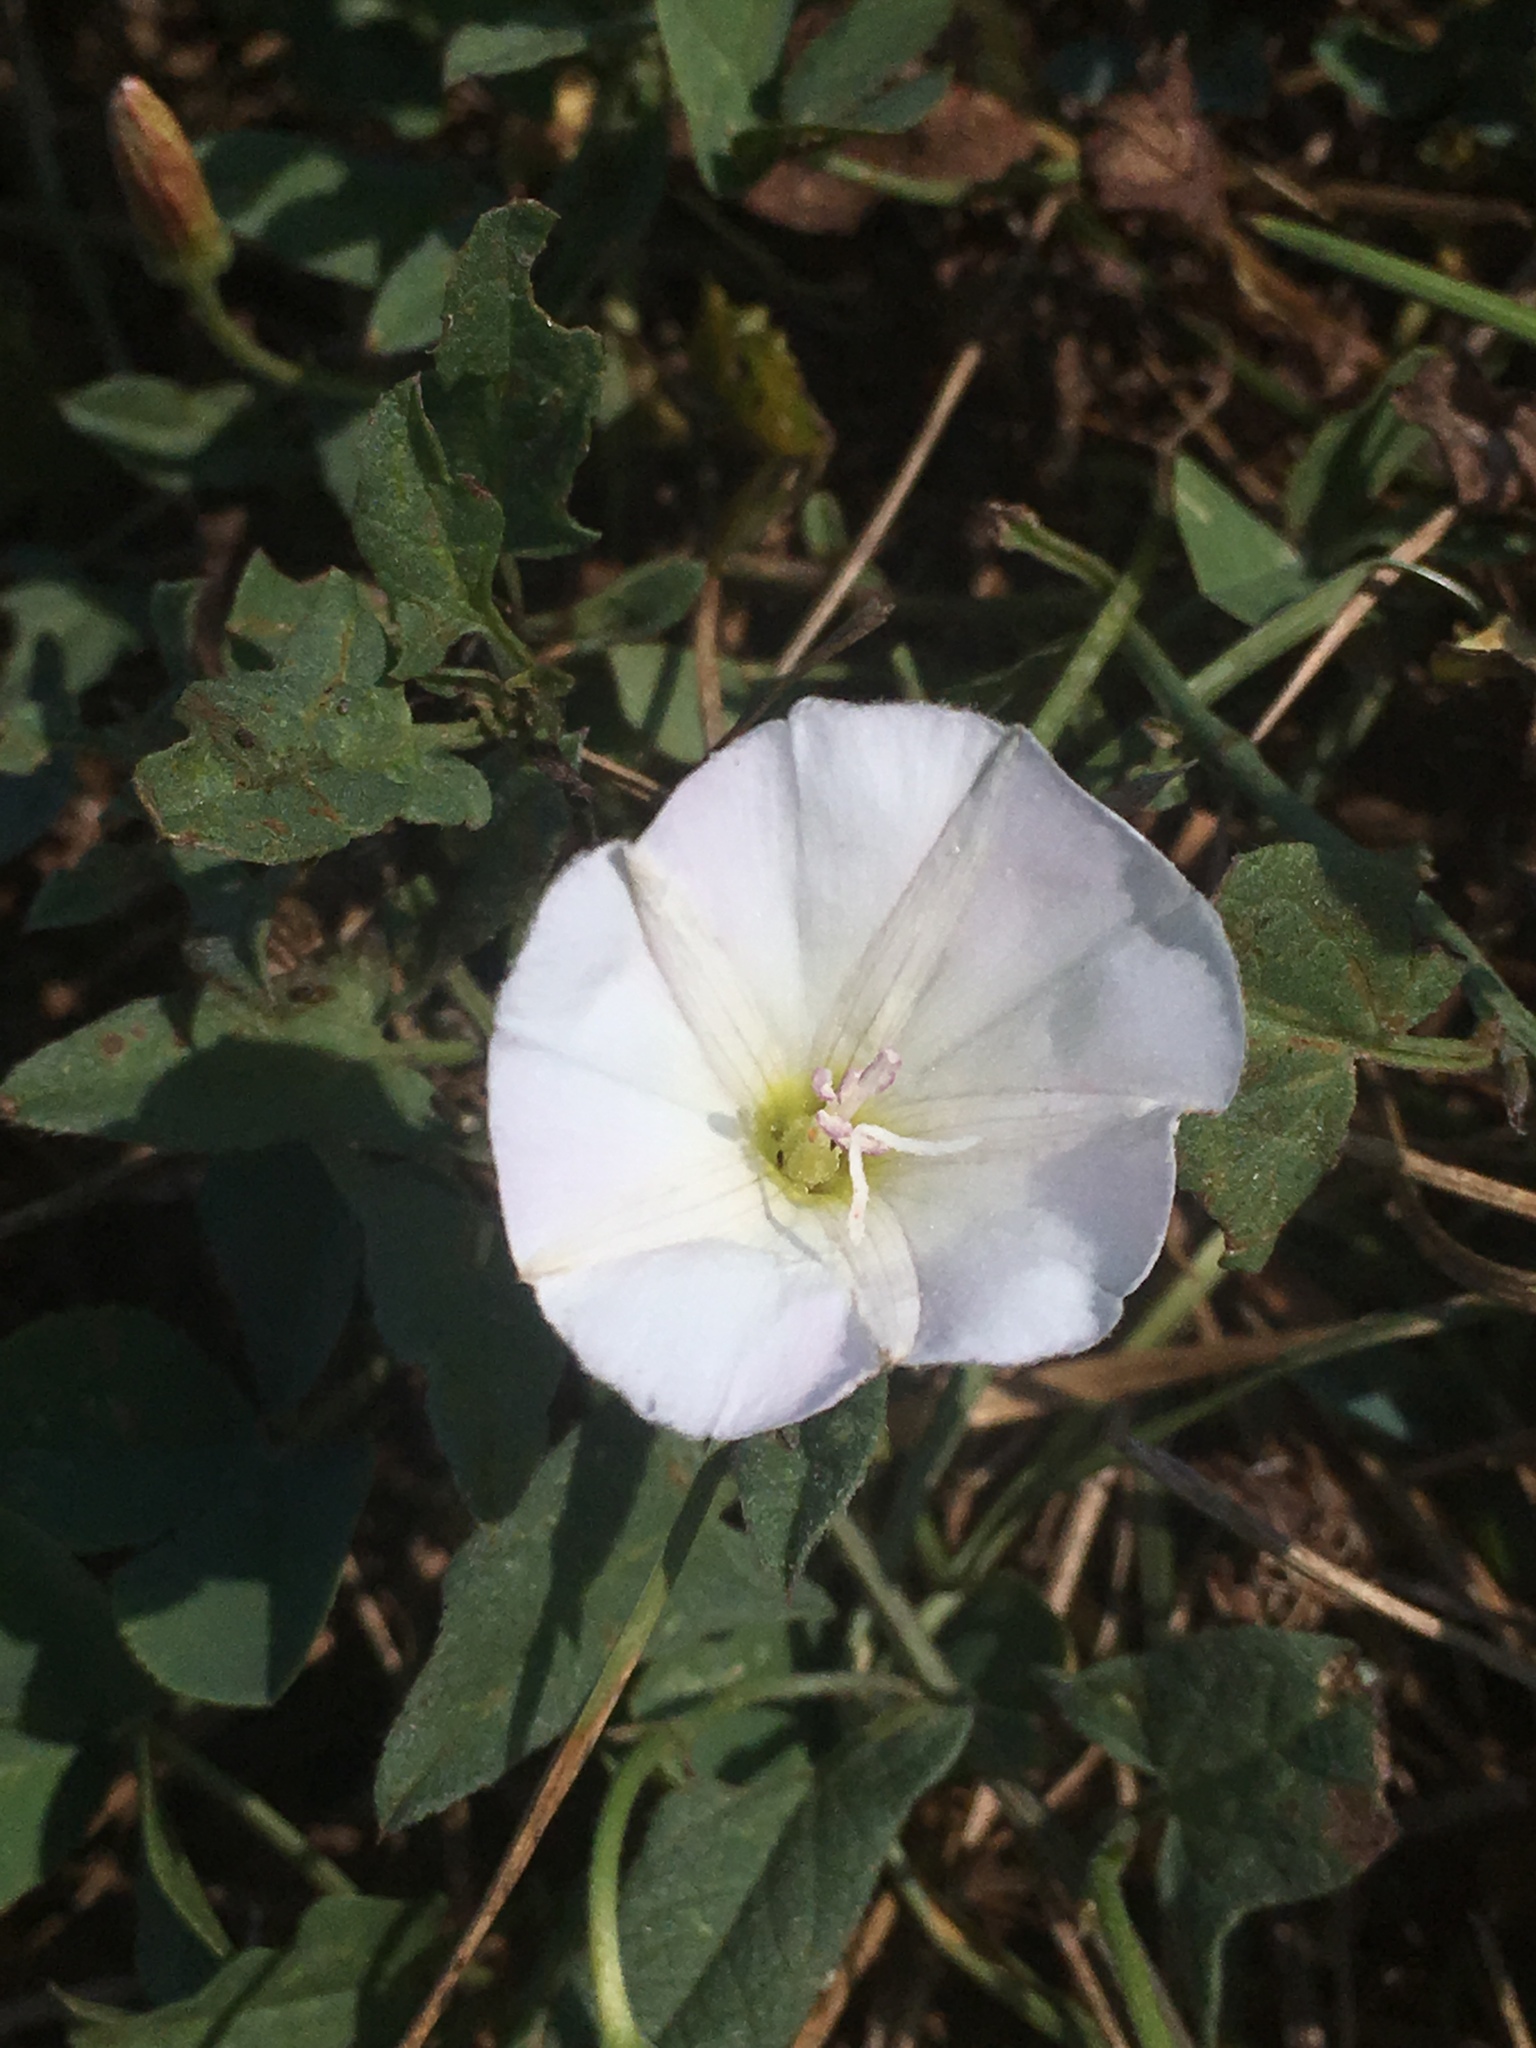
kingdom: Plantae
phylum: Tracheophyta
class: Magnoliopsida
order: Solanales
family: Convolvulaceae
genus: Convolvulus
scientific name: Convolvulus arvensis
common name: Field bindweed
